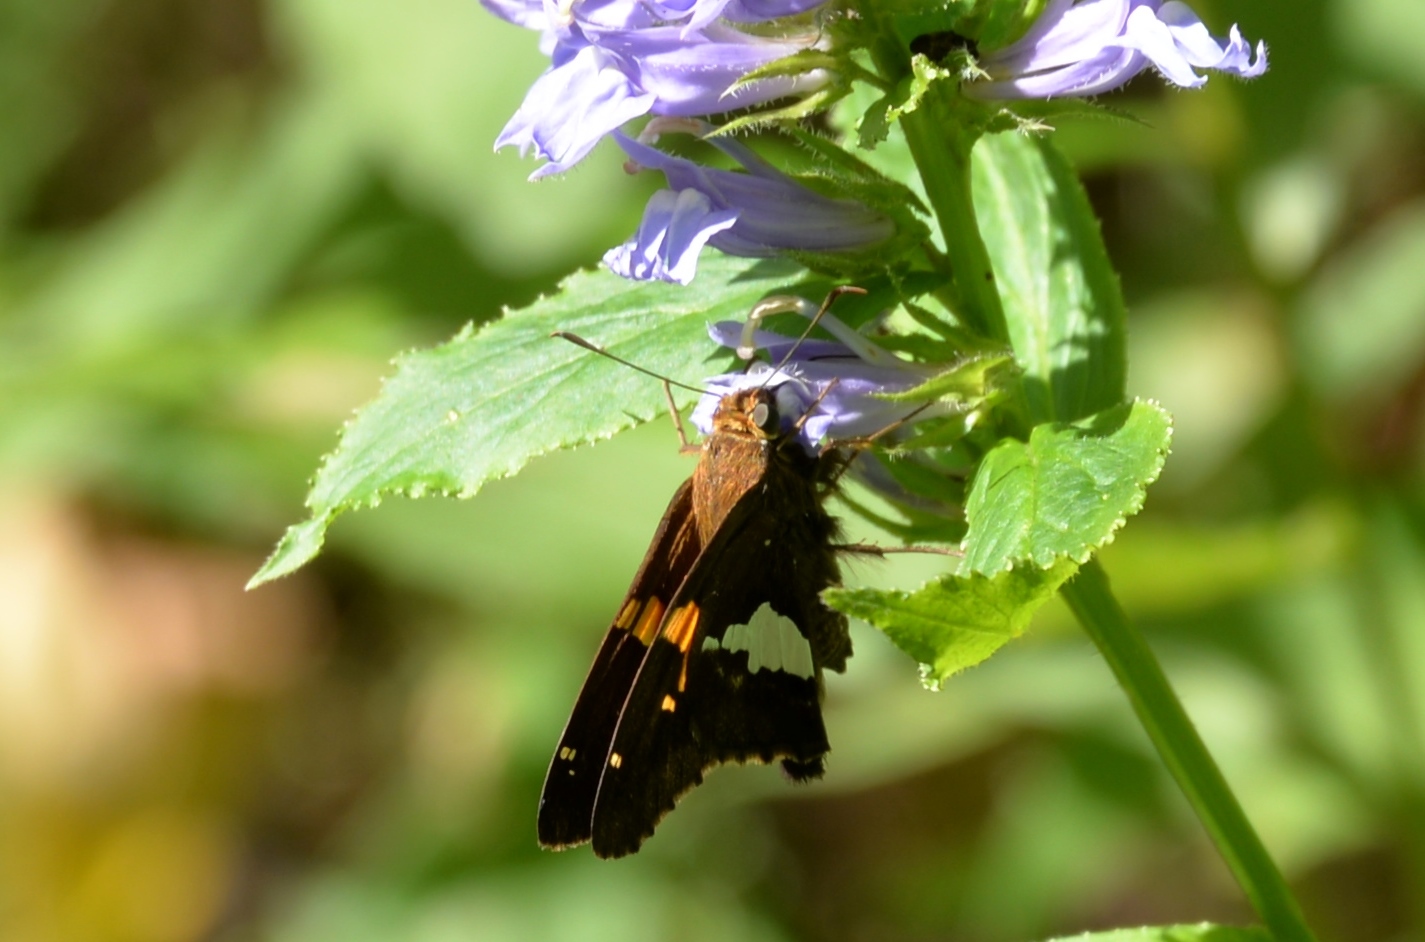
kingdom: Animalia
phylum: Arthropoda
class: Insecta
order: Lepidoptera
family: Hesperiidae
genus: Epargyreus
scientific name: Epargyreus clarus
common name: Silver-spotted skipper
